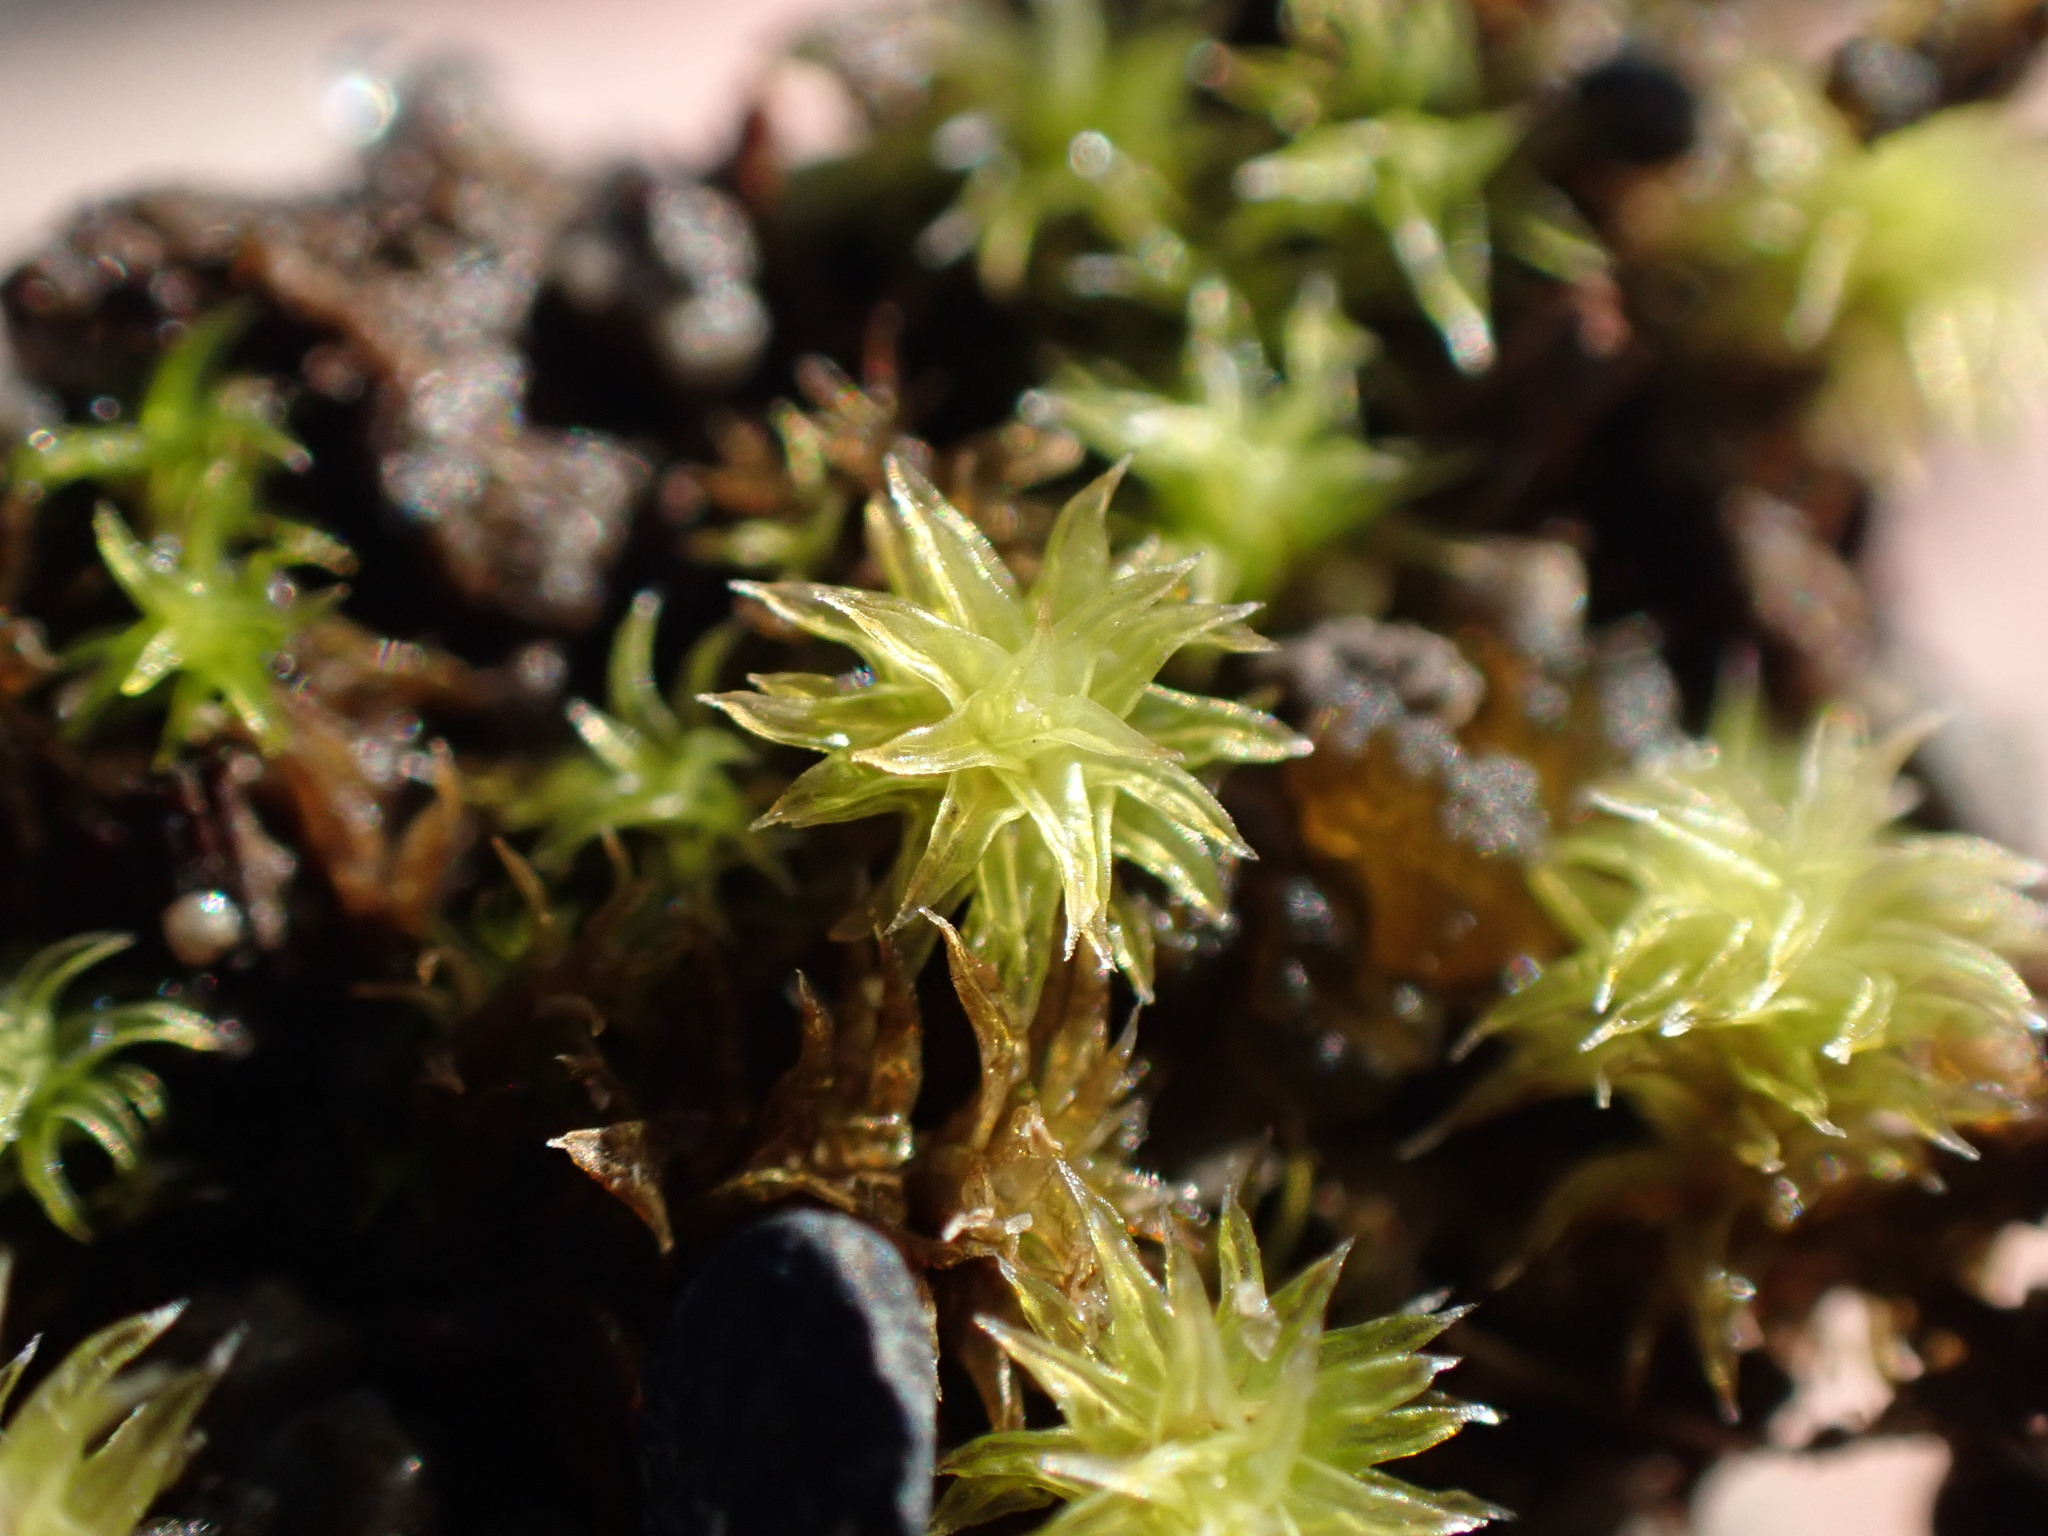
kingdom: Plantae
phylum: Bryophyta
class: Bryopsida
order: Grimmiales
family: Grimmiaceae
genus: Niphotrichum
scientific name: Niphotrichum japonicum
